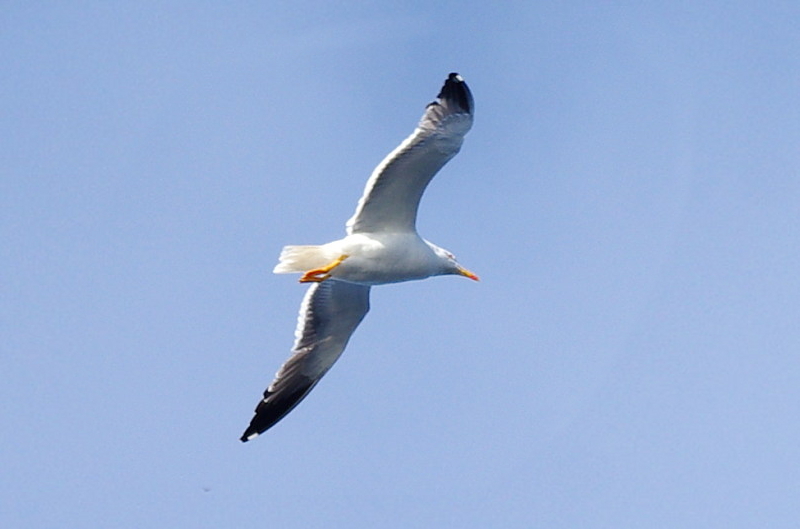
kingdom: Animalia
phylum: Chordata
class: Aves
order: Charadriiformes
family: Laridae
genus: Larus
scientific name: Larus fuscus
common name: Lesser black-backed gull
